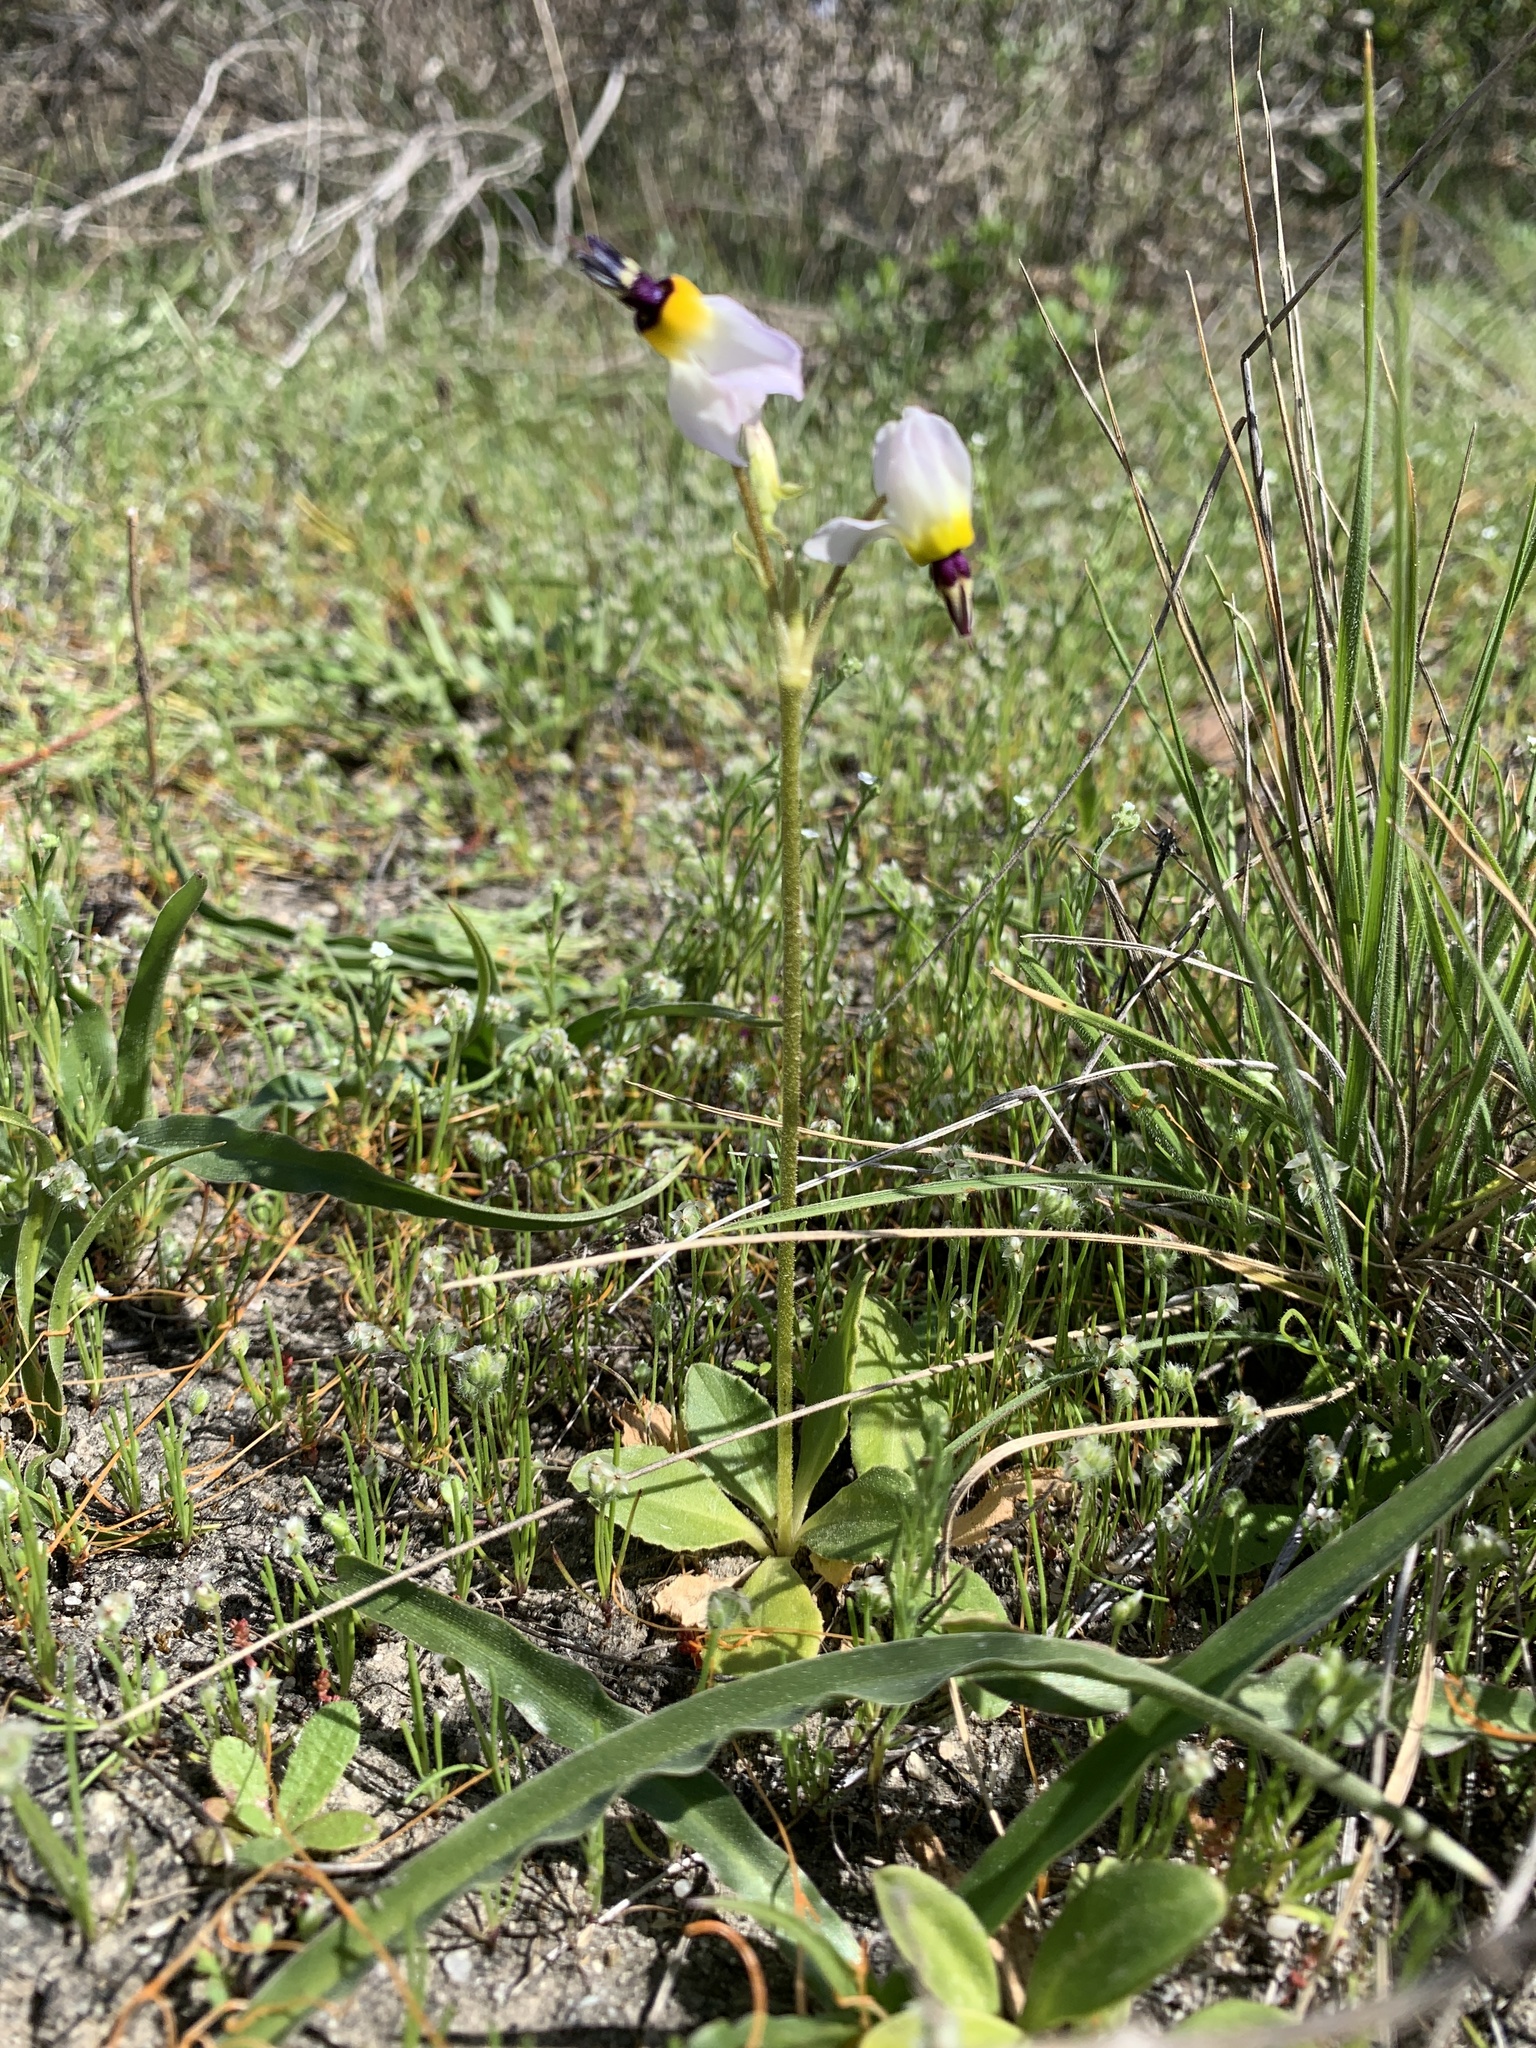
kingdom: Plantae
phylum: Tracheophyta
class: Magnoliopsida
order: Ericales
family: Primulaceae
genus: Dodecatheon
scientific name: Dodecatheon clevelandii
